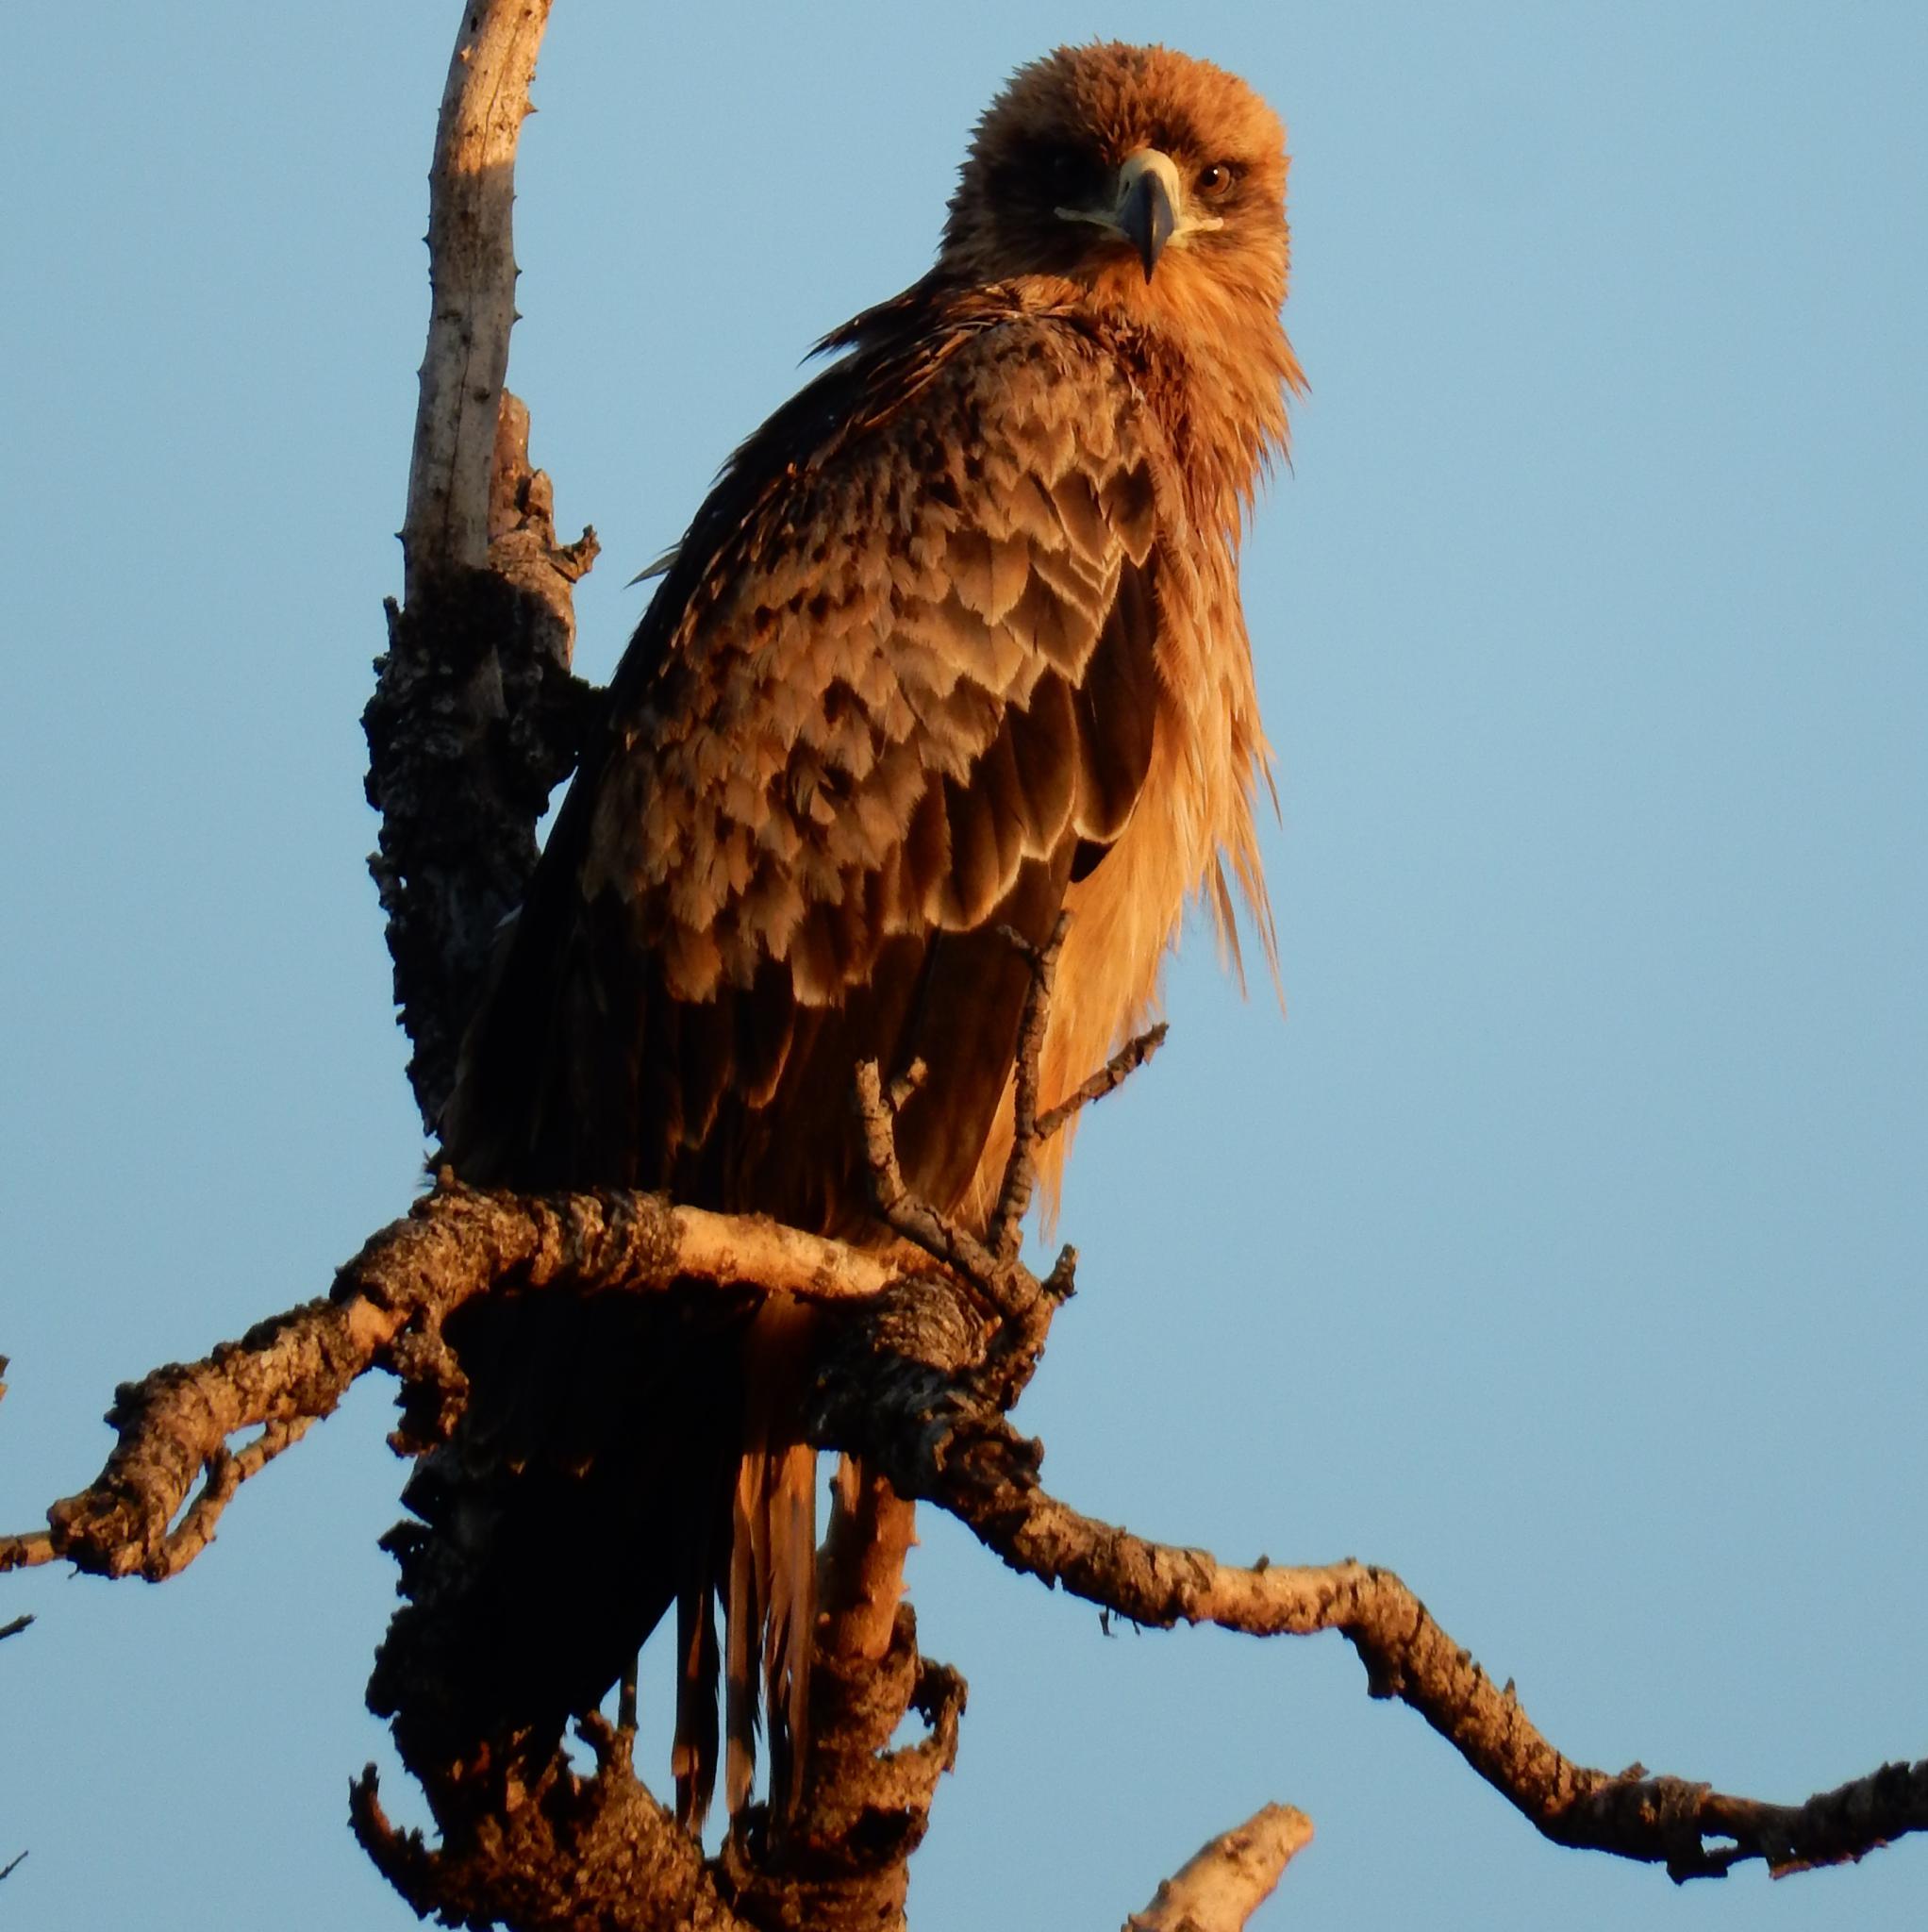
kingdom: Animalia
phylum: Chordata
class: Aves
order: Accipitriformes
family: Accipitridae
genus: Aquila
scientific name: Aquila rapax
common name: Tawny eagle
